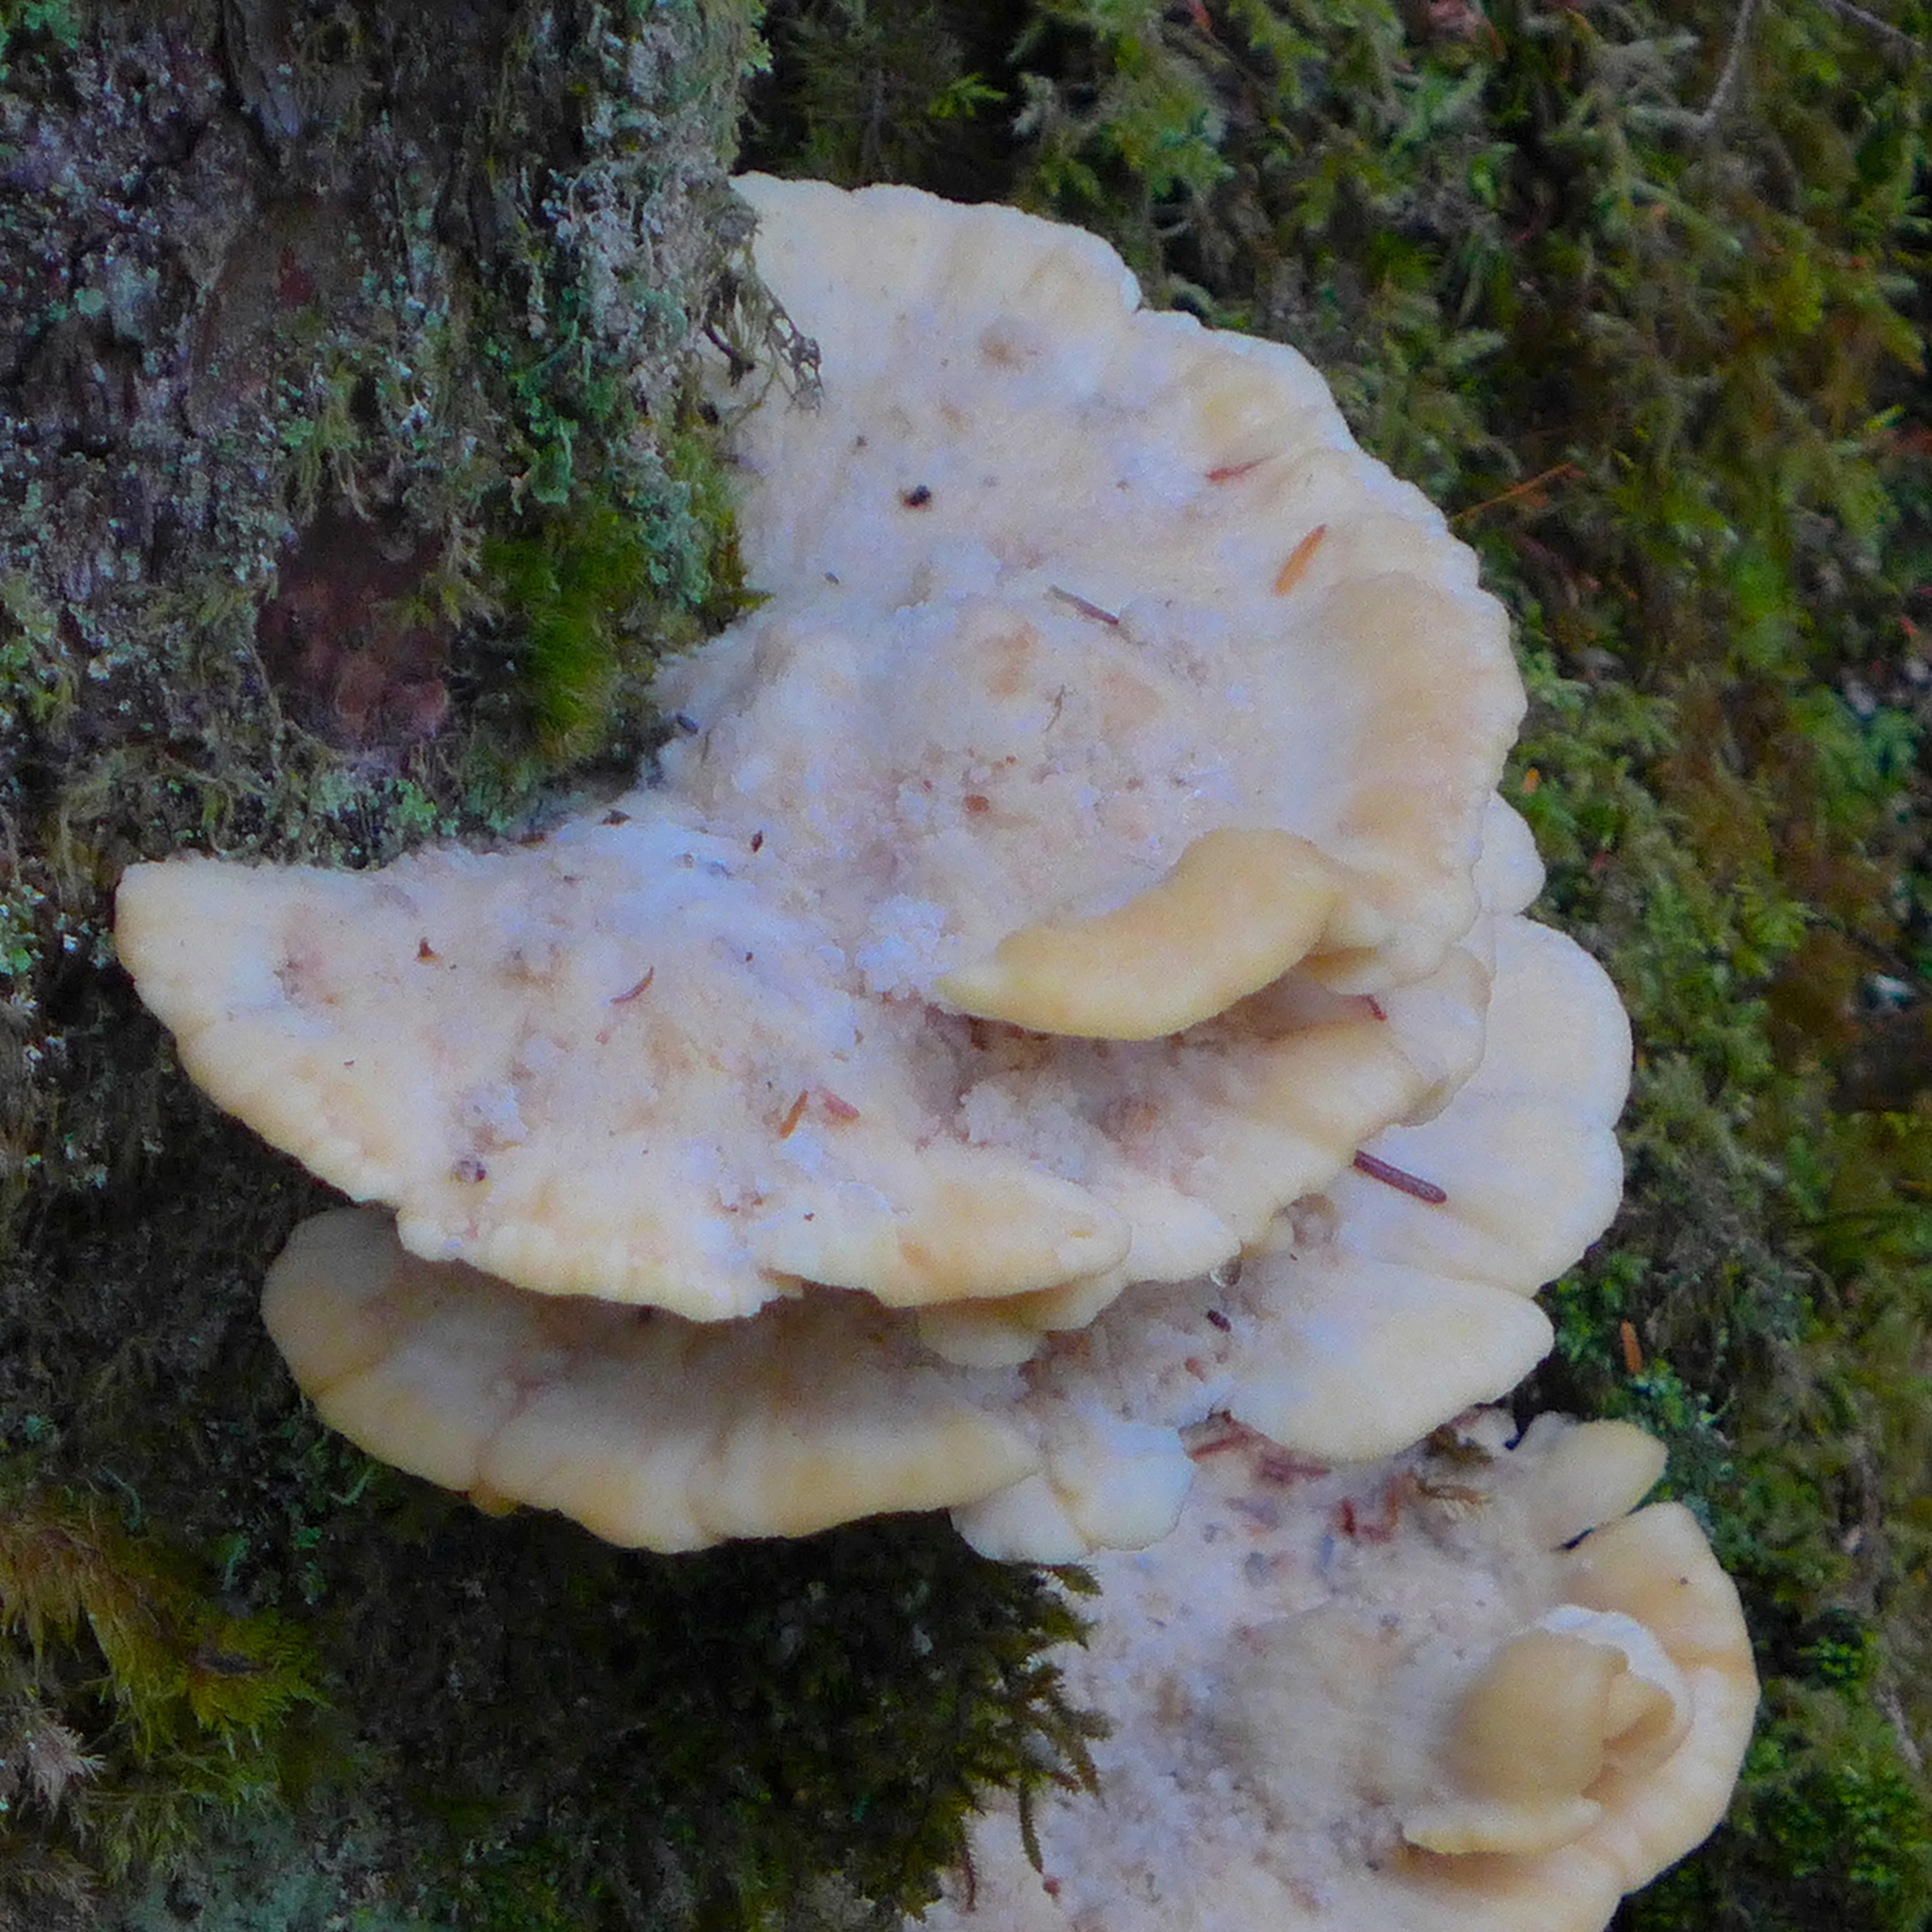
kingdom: Fungi
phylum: Basidiomycota
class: Agaricomycetes
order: Polyporales
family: Laetiporaceae
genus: Laetiporus
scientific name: Laetiporus conifericola
